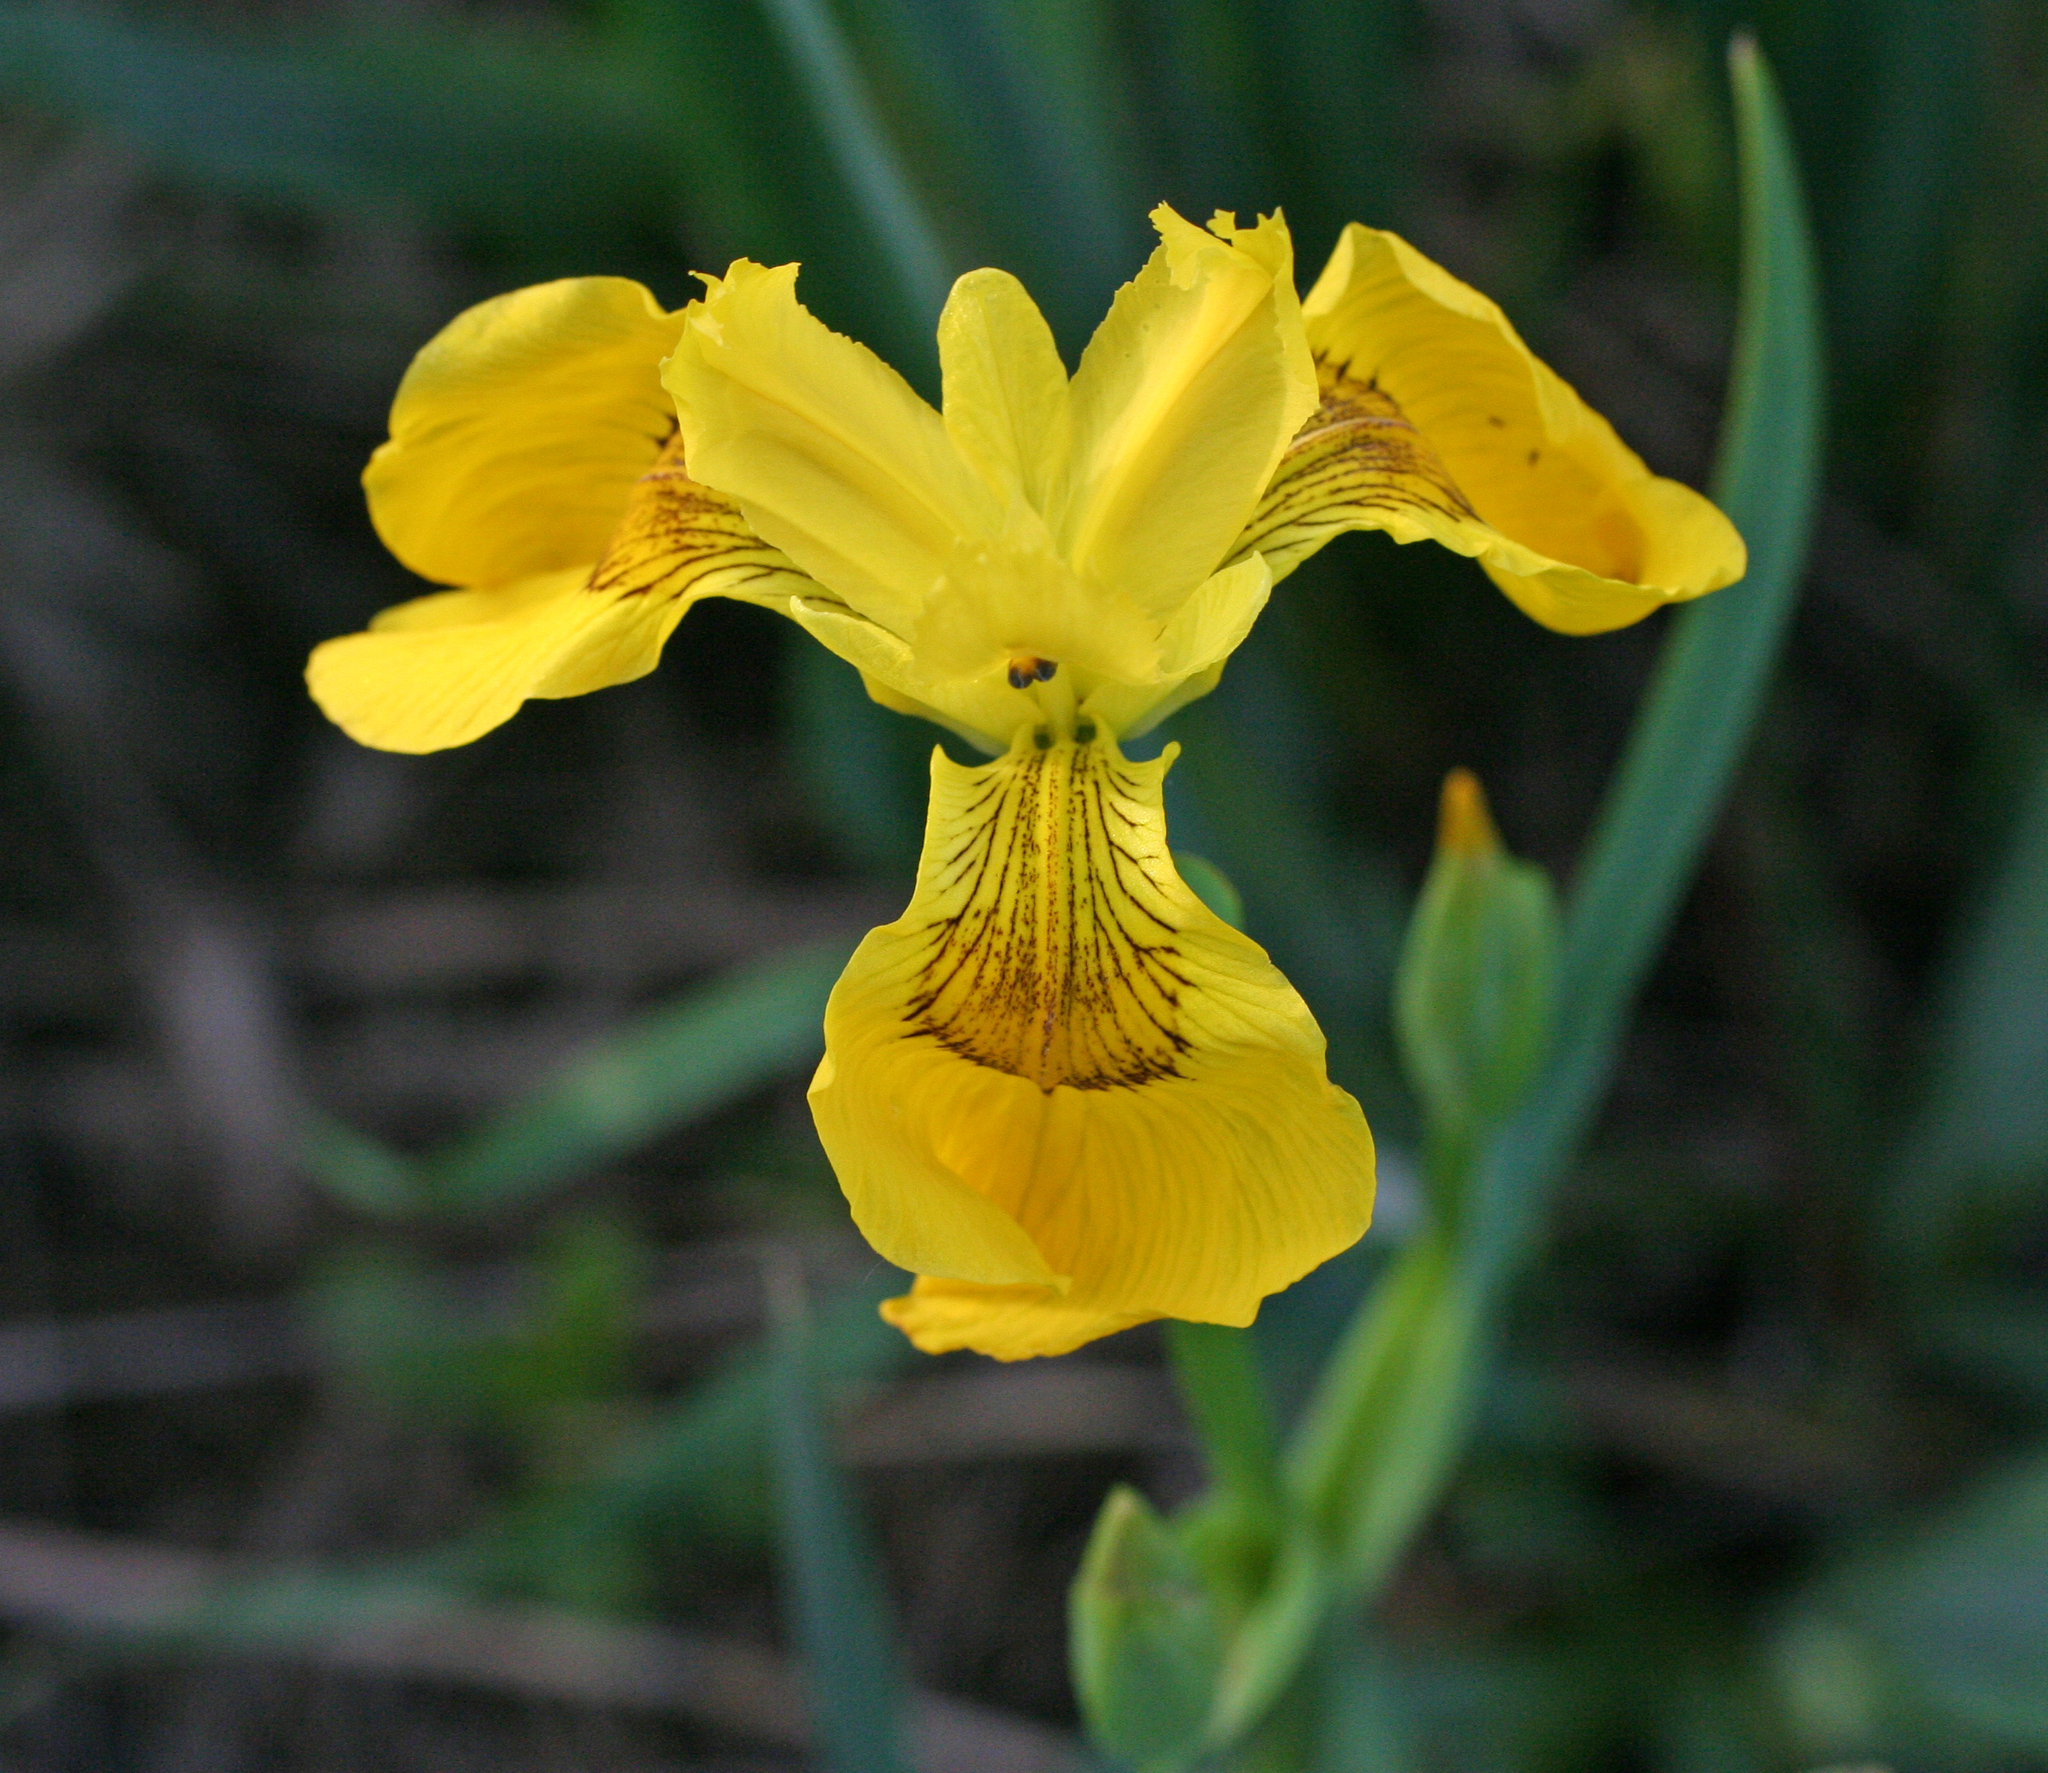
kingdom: Plantae
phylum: Tracheophyta
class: Liliopsida
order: Asparagales
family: Iridaceae
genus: Iris
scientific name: Iris pseudacorus
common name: Yellow flag
